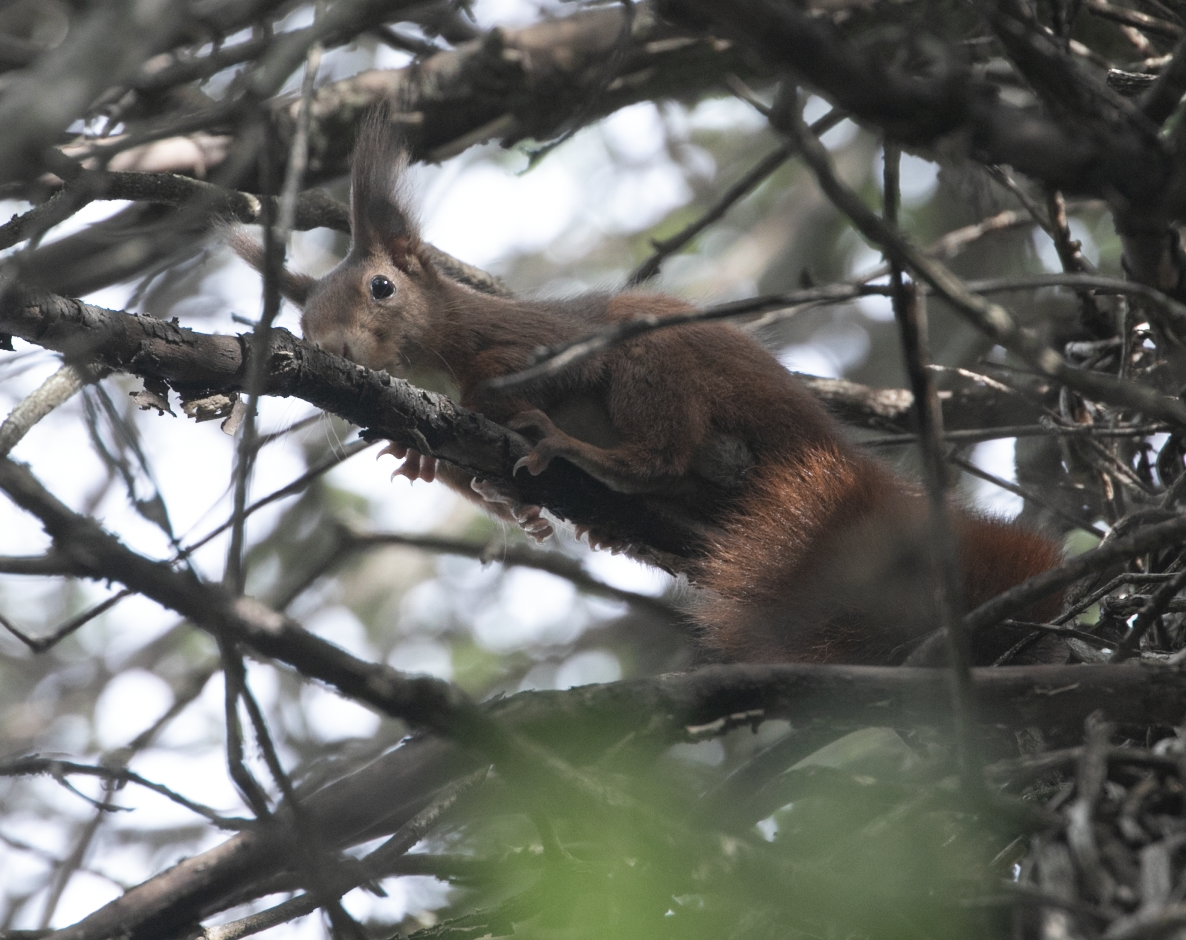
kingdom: Animalia
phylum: Chordata
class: Mammalia
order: Rodentia
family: Sciuridae
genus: Sciurus
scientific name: Sciurus vulgaris
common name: Eurasian red squirrel
